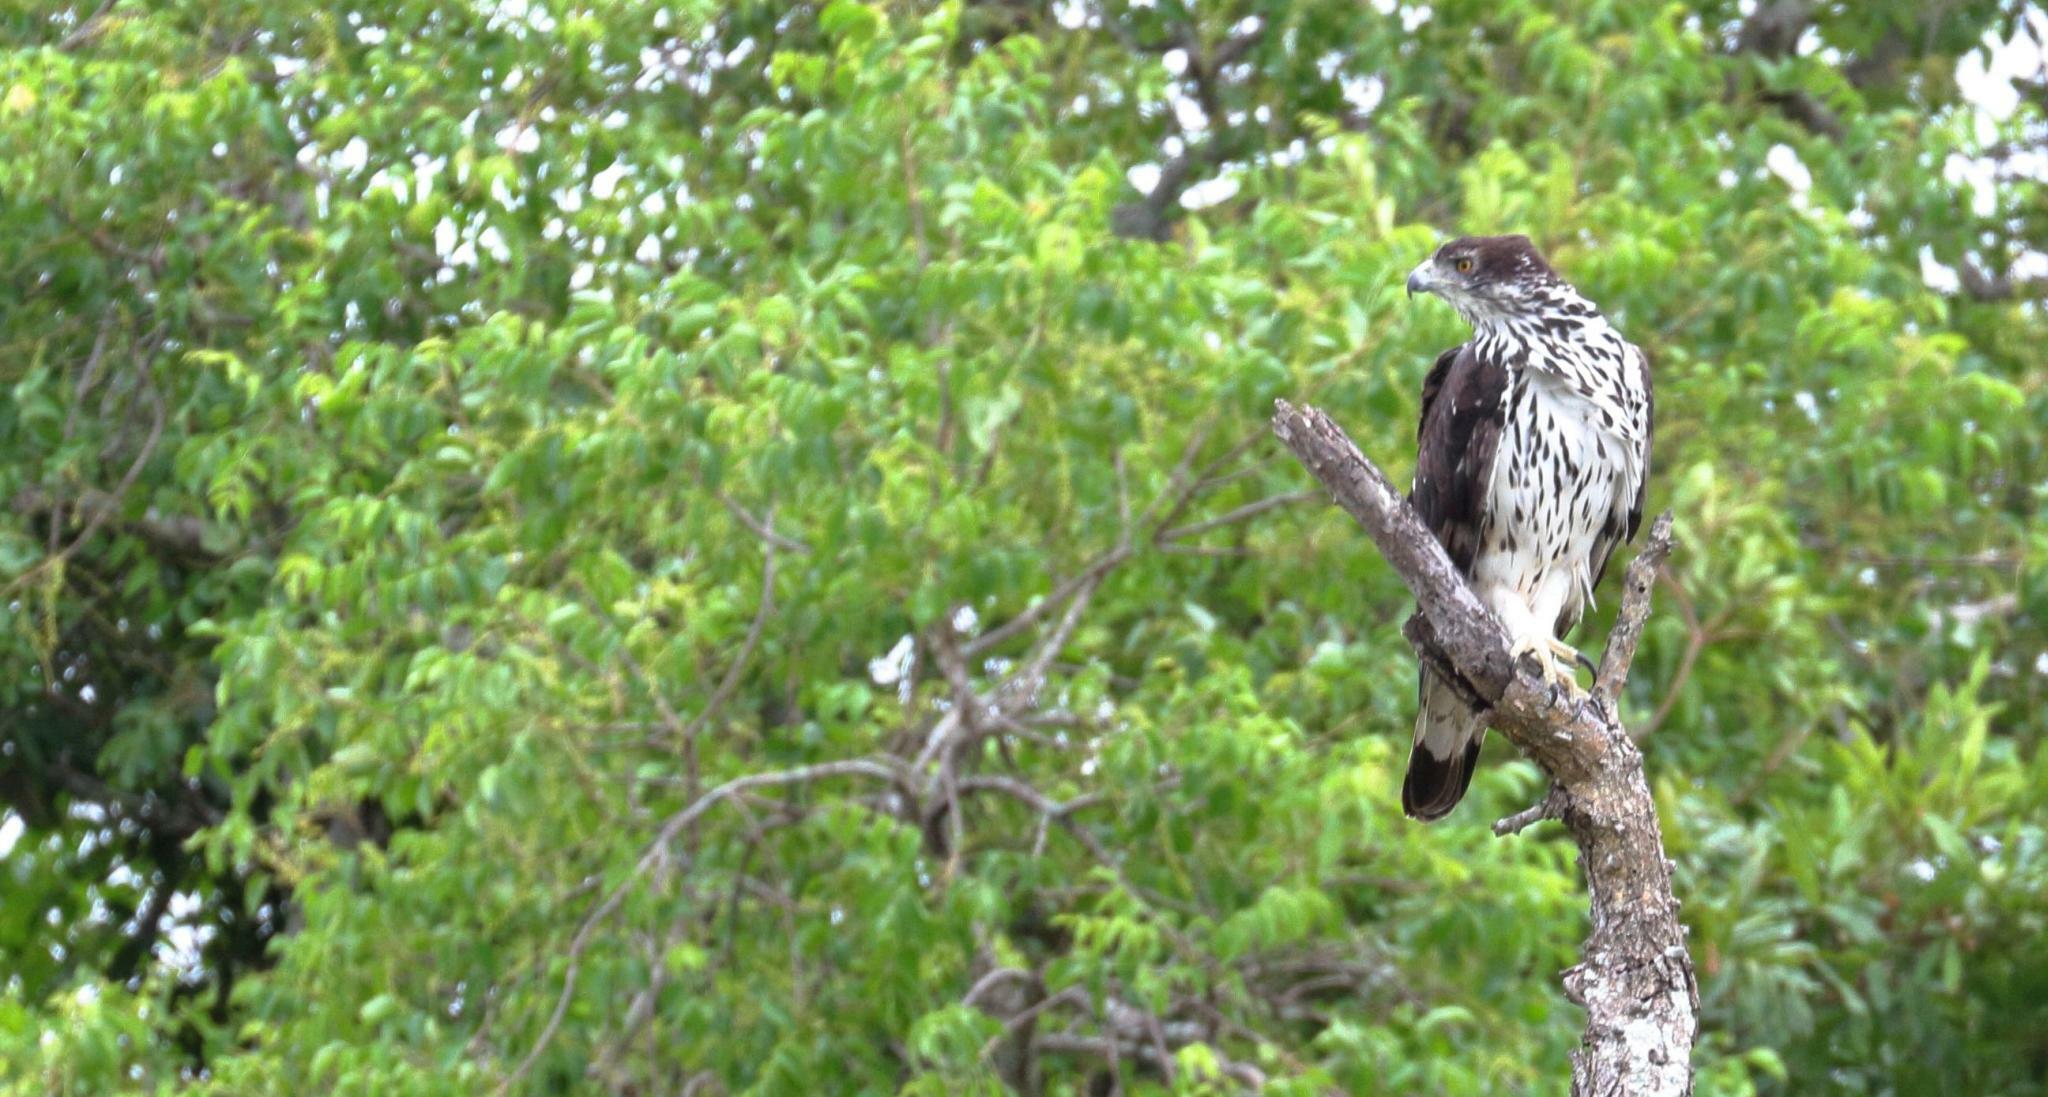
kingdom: Animalia
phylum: Chordata
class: Aves
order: Accipitriformes
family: Accipitridae
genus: Aquila
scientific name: Aquila spilogaster
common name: African hawk-eagle
